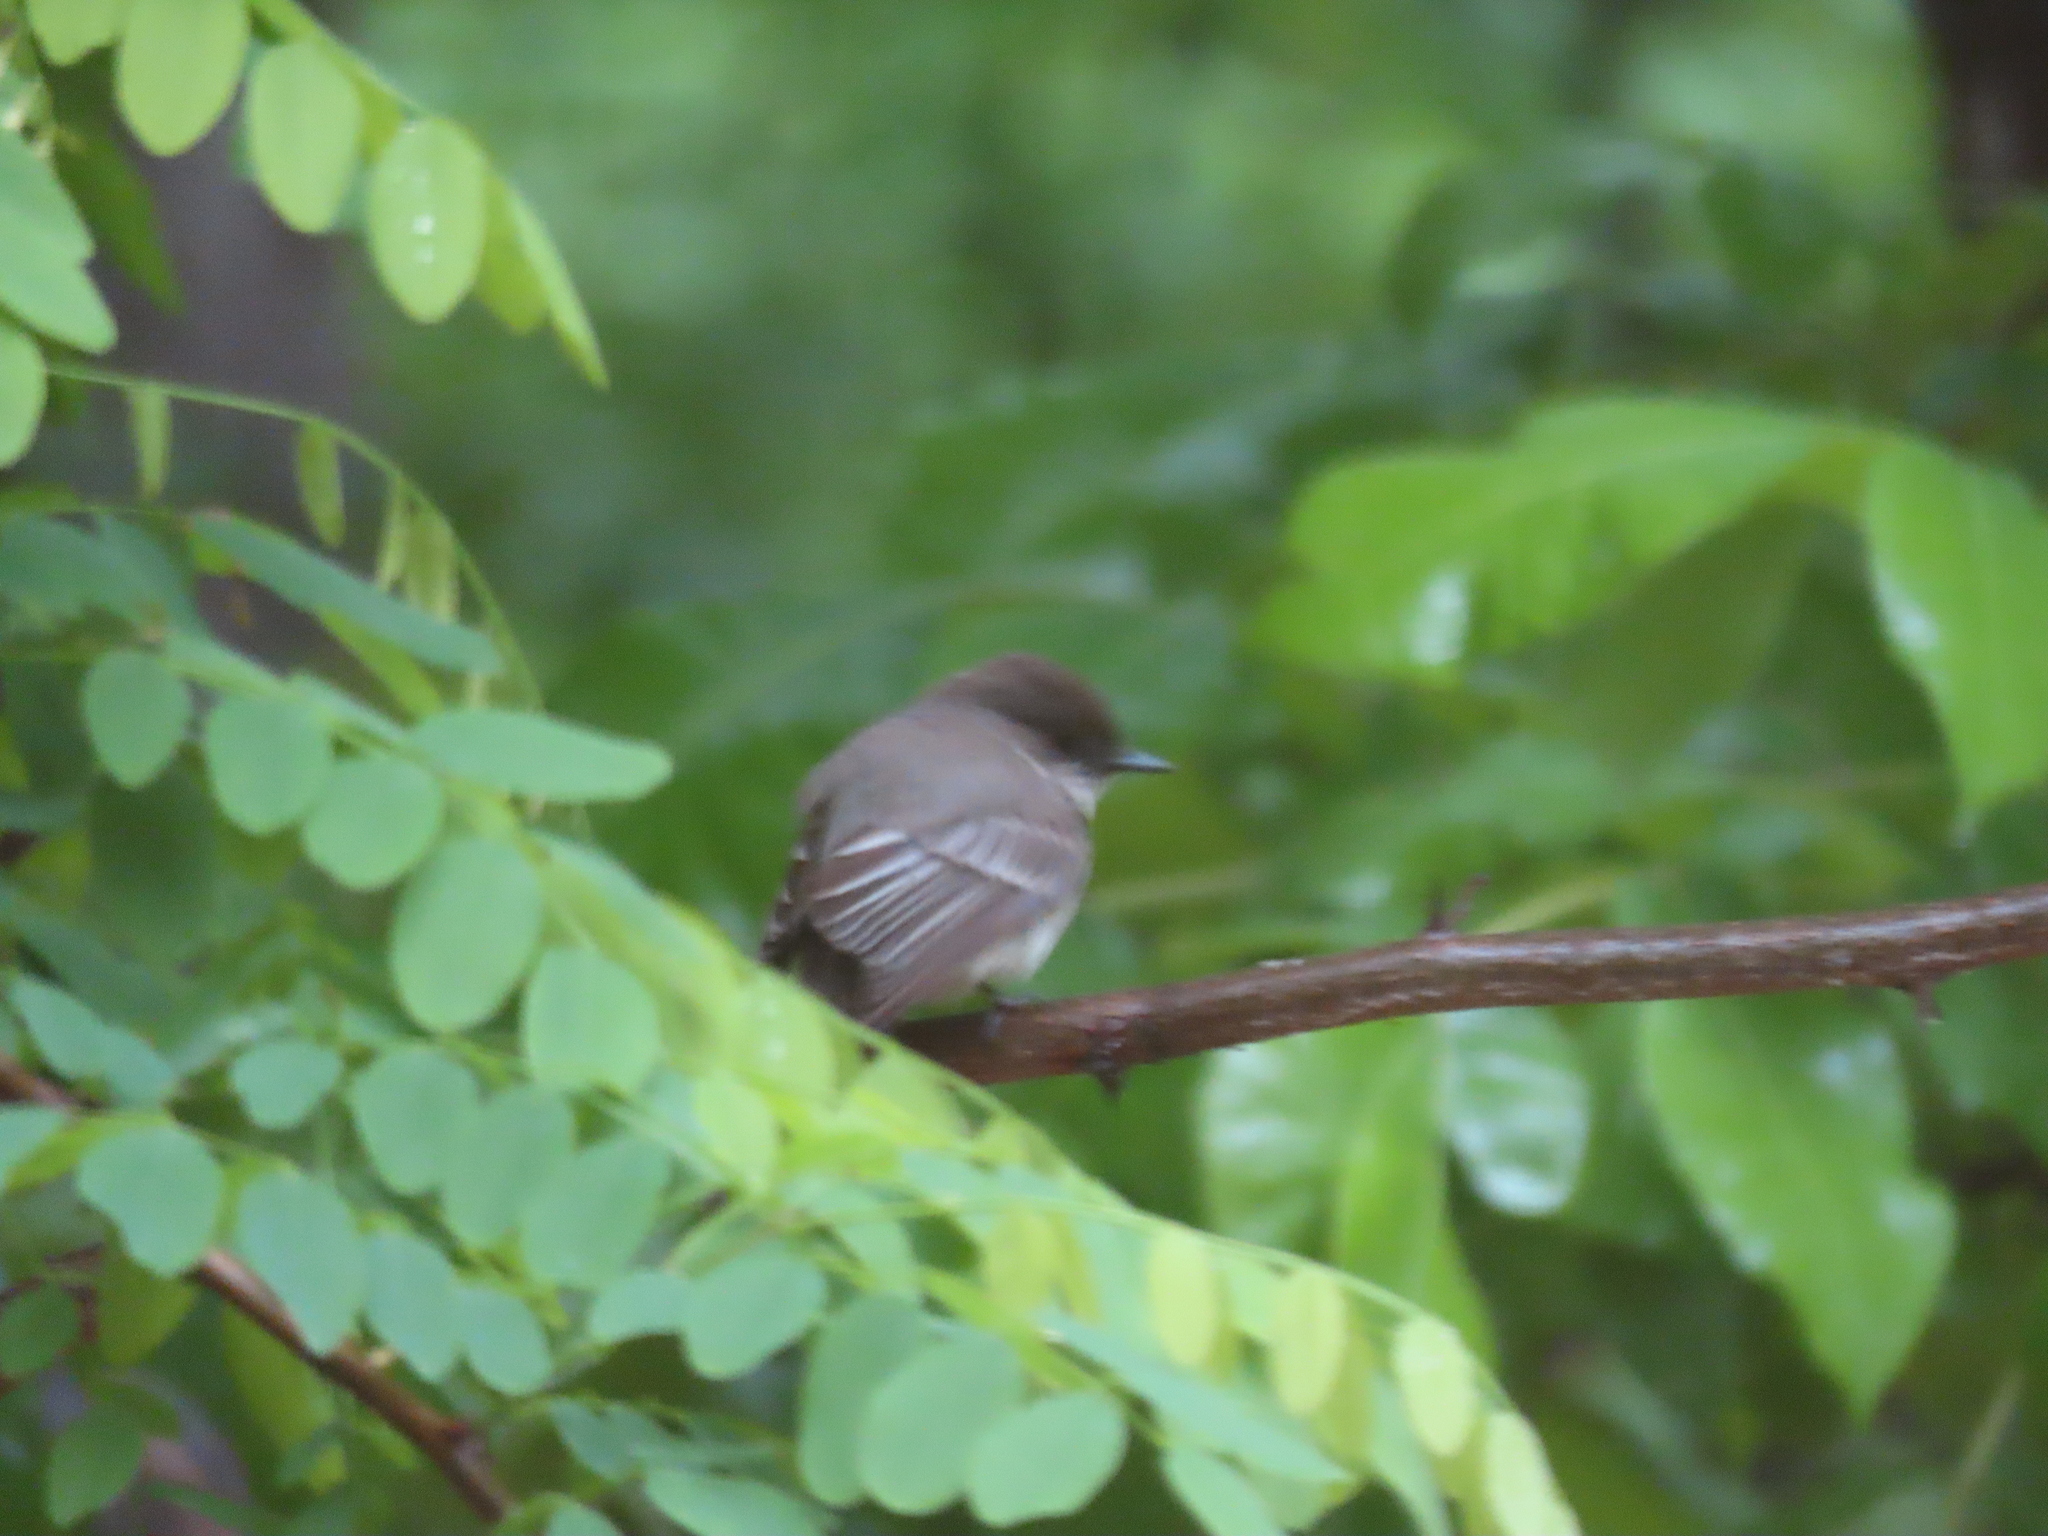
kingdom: Animalia
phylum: Chordata
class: Aves
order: Passeriformes
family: Tyrannidae
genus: Sayornis
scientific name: Sayornis phoebe
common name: Eastern phoebe
